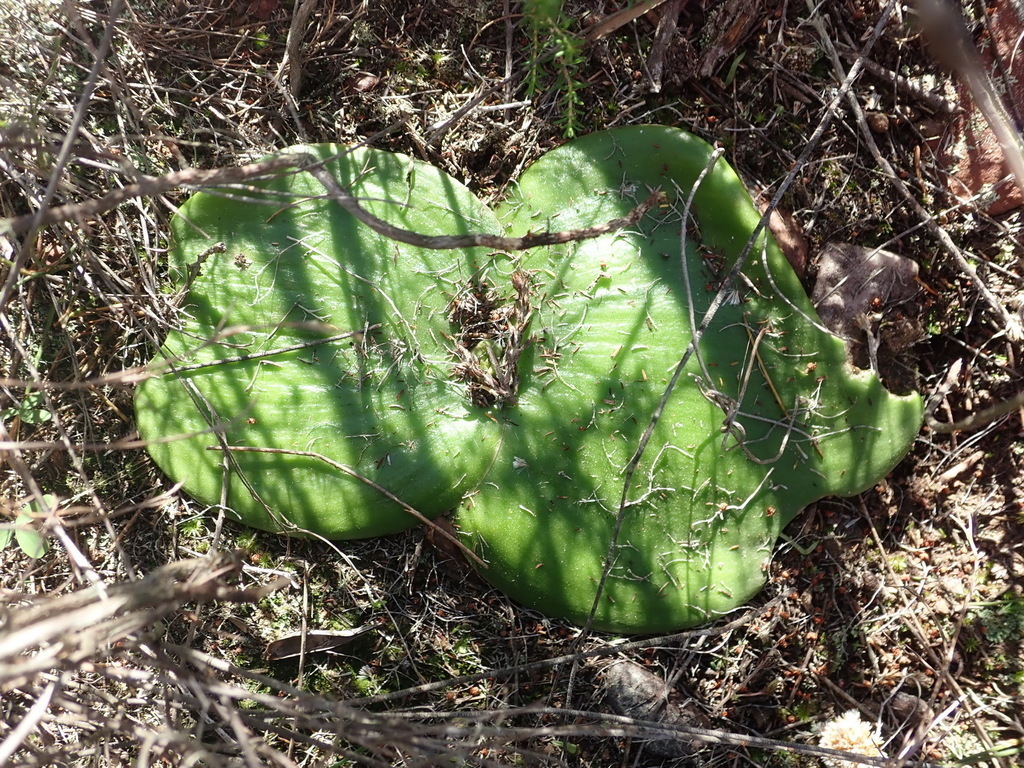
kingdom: Plantae
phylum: Tracheophyta
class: Liliopsida
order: Asparagales
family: Asparagaceae
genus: Massonia
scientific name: Massonia setulosa
